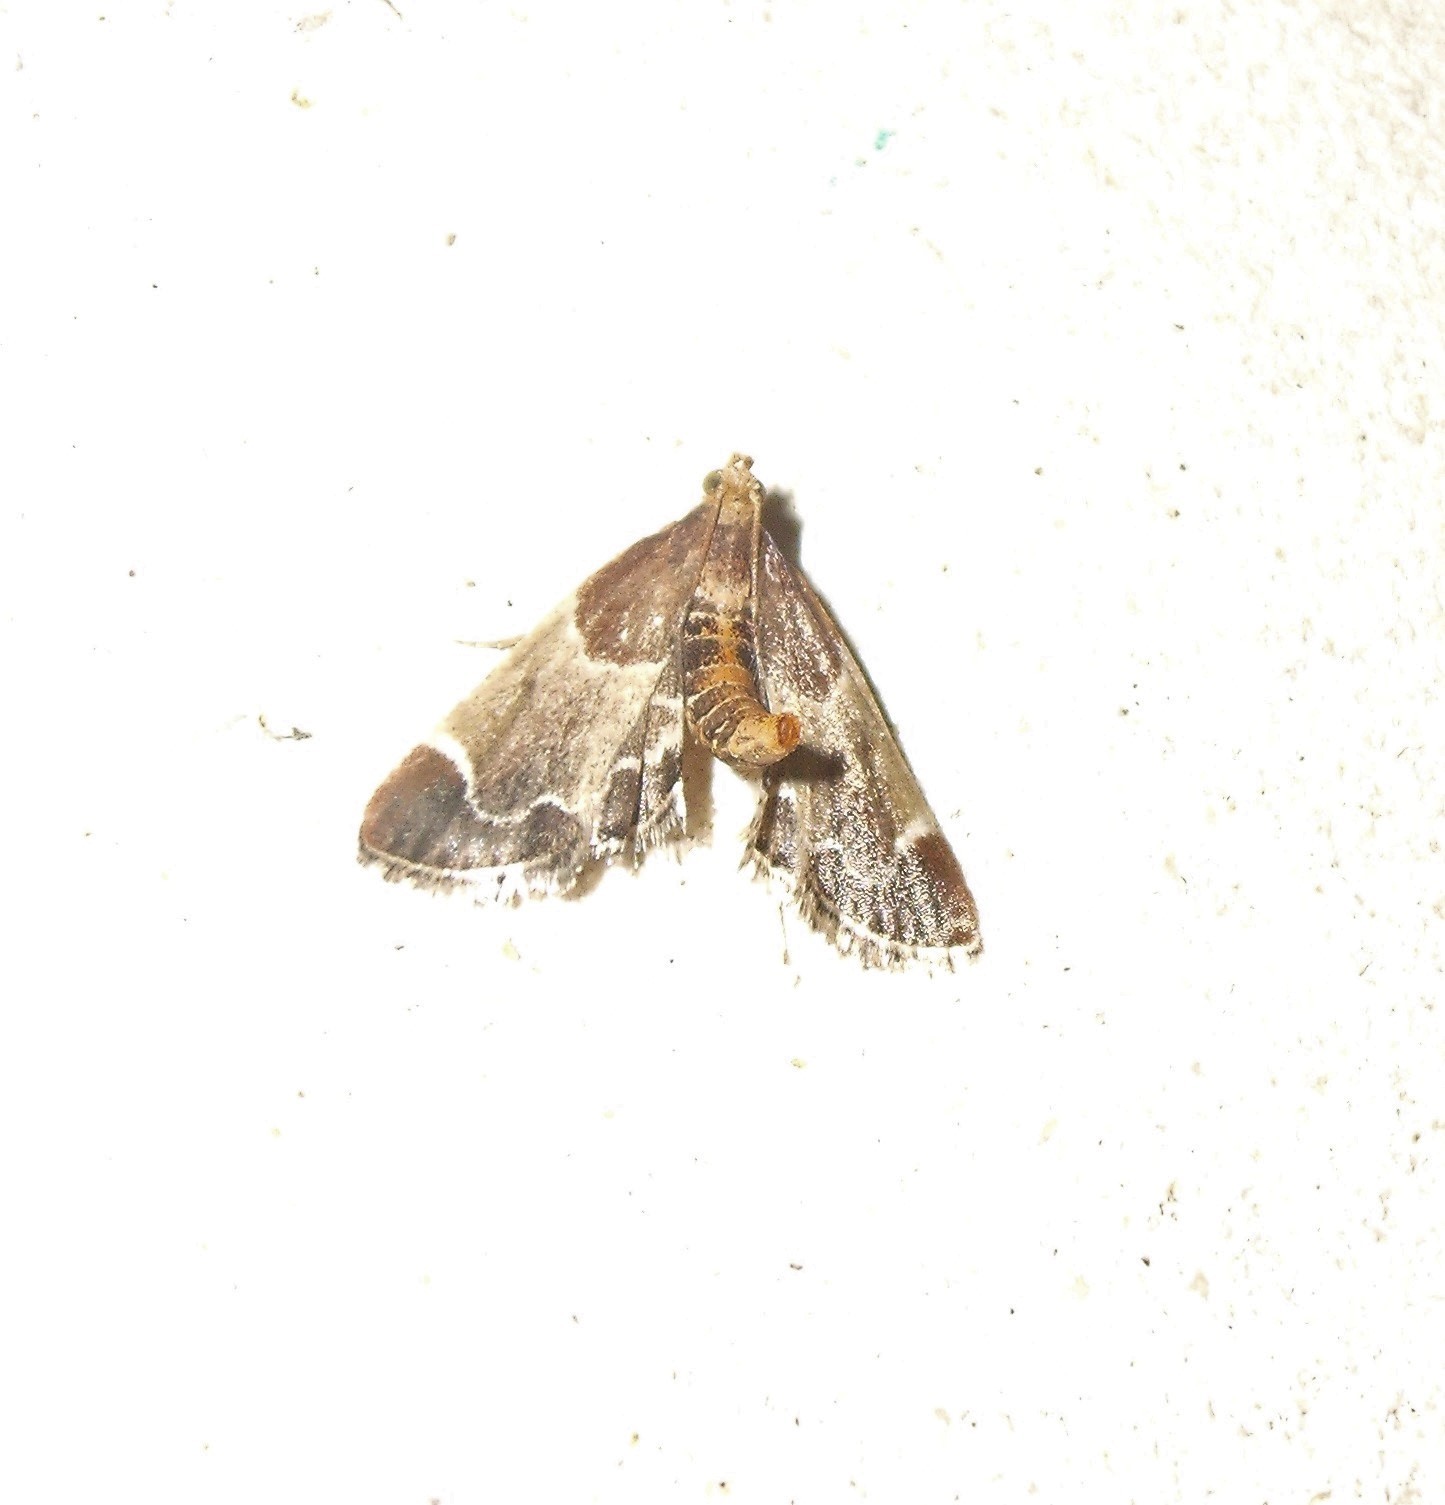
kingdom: Animalia
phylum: Arthropoda
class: Insecta
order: Lepidoptera
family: Pyralidae
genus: Pyralis
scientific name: Pyralis farinalis
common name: Meal moth
